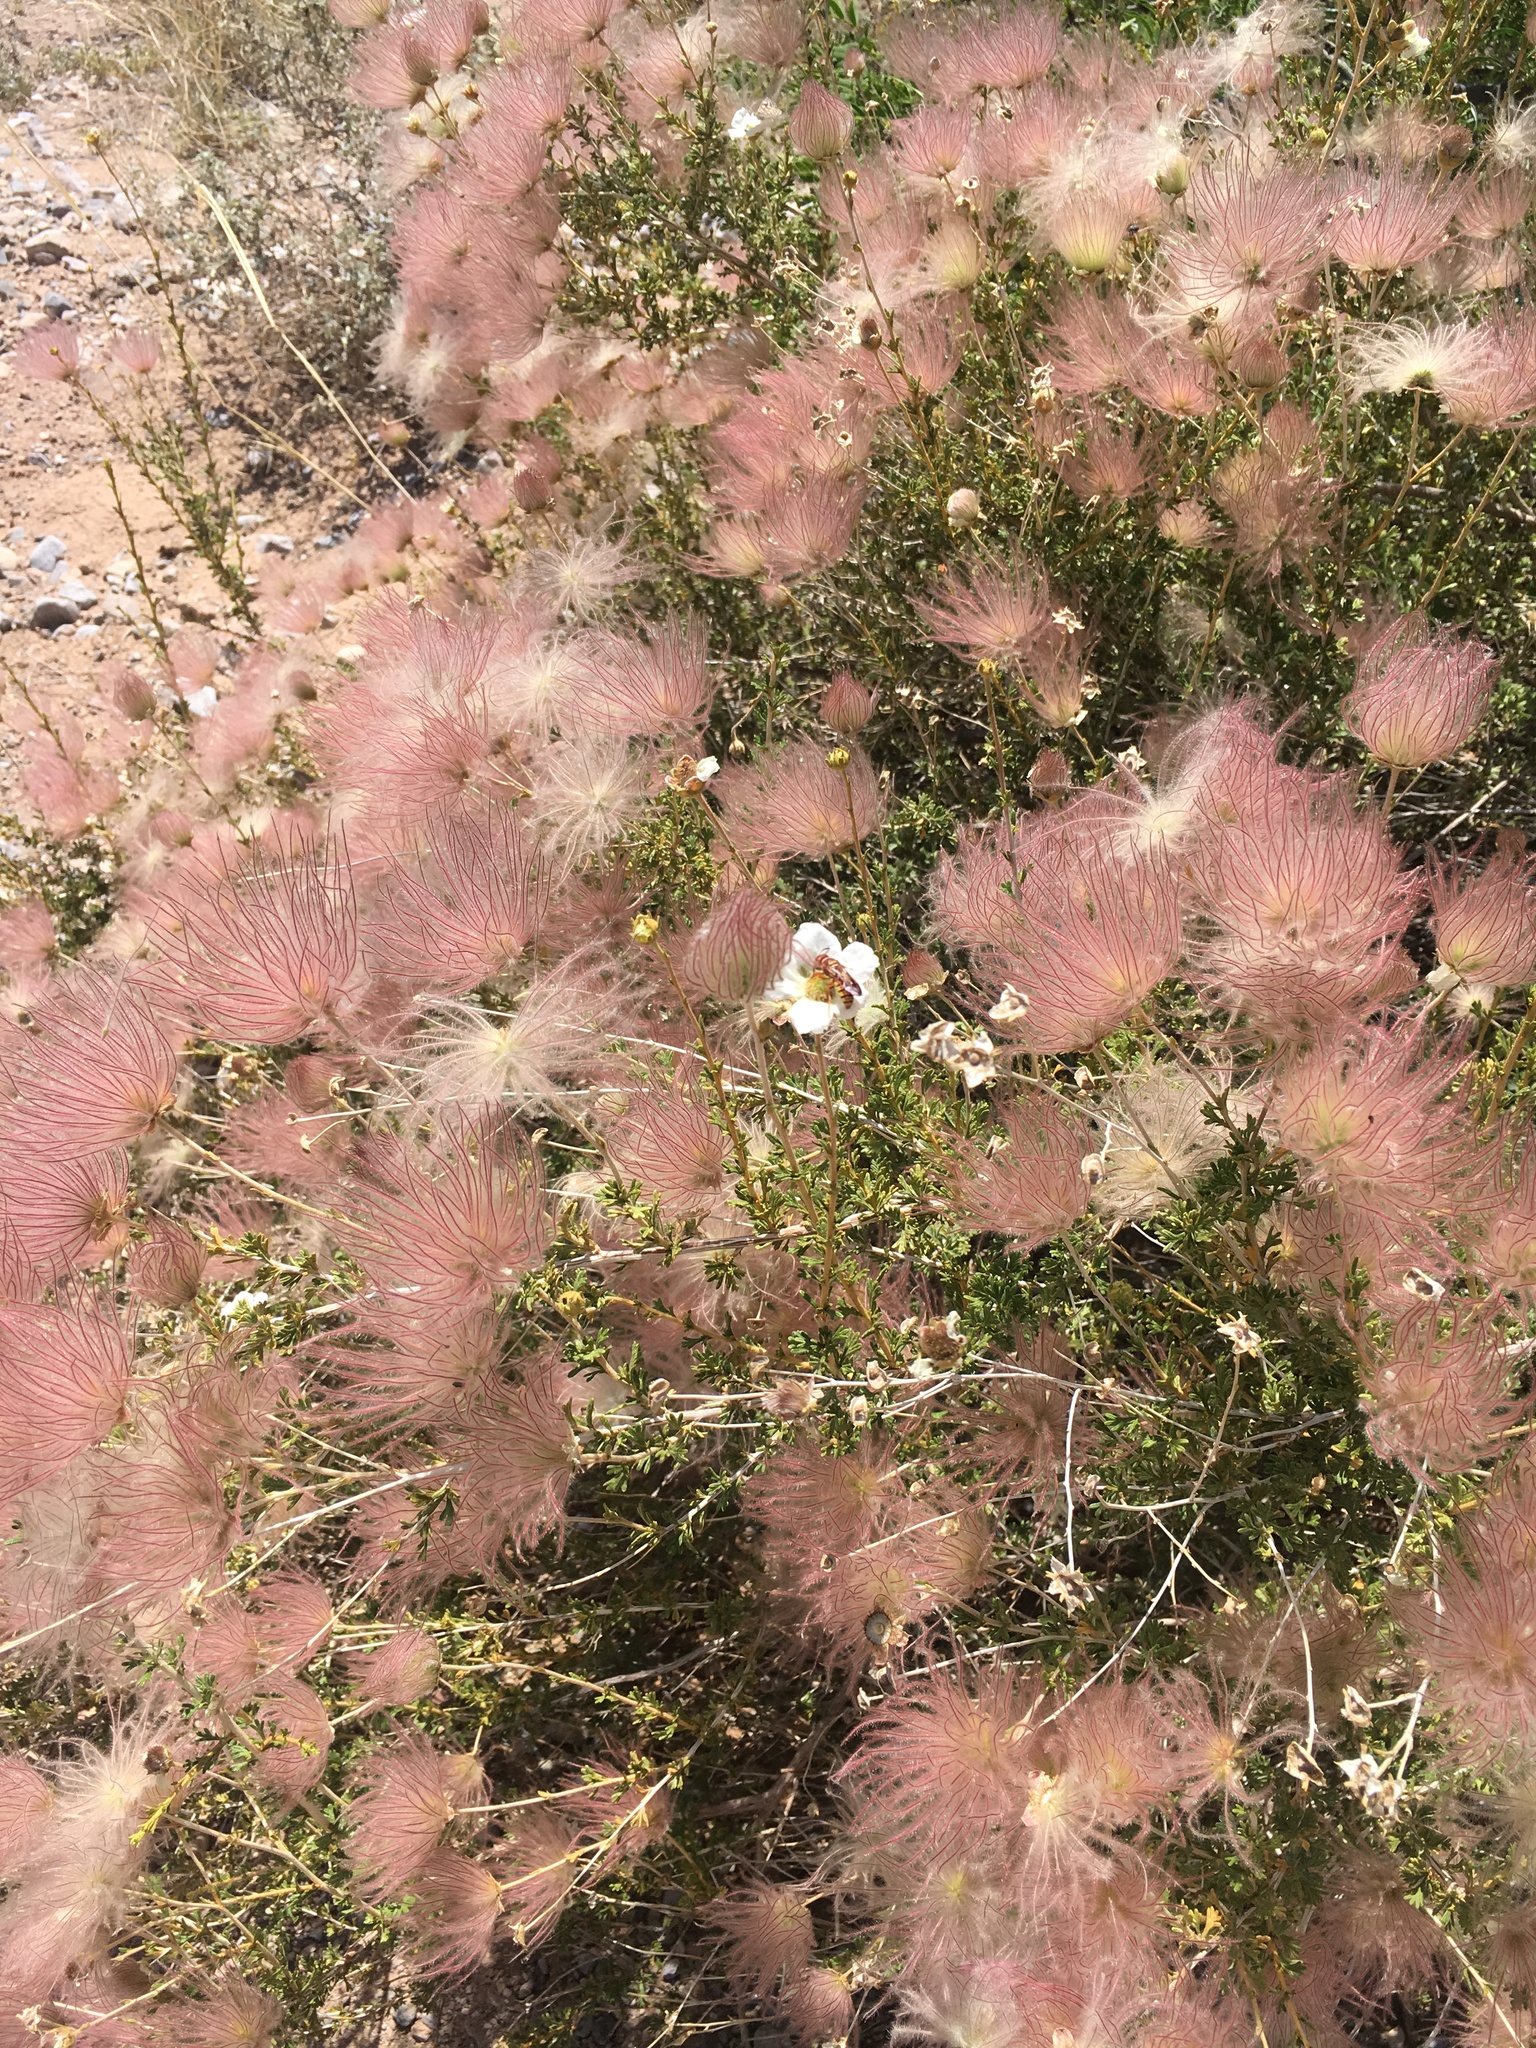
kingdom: Plantae
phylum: Tracheophyta
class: Magnoliopsida
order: Rosales
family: Rosaceae
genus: Fallugia
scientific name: Fallugia paradoxa
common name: Apache-plume
